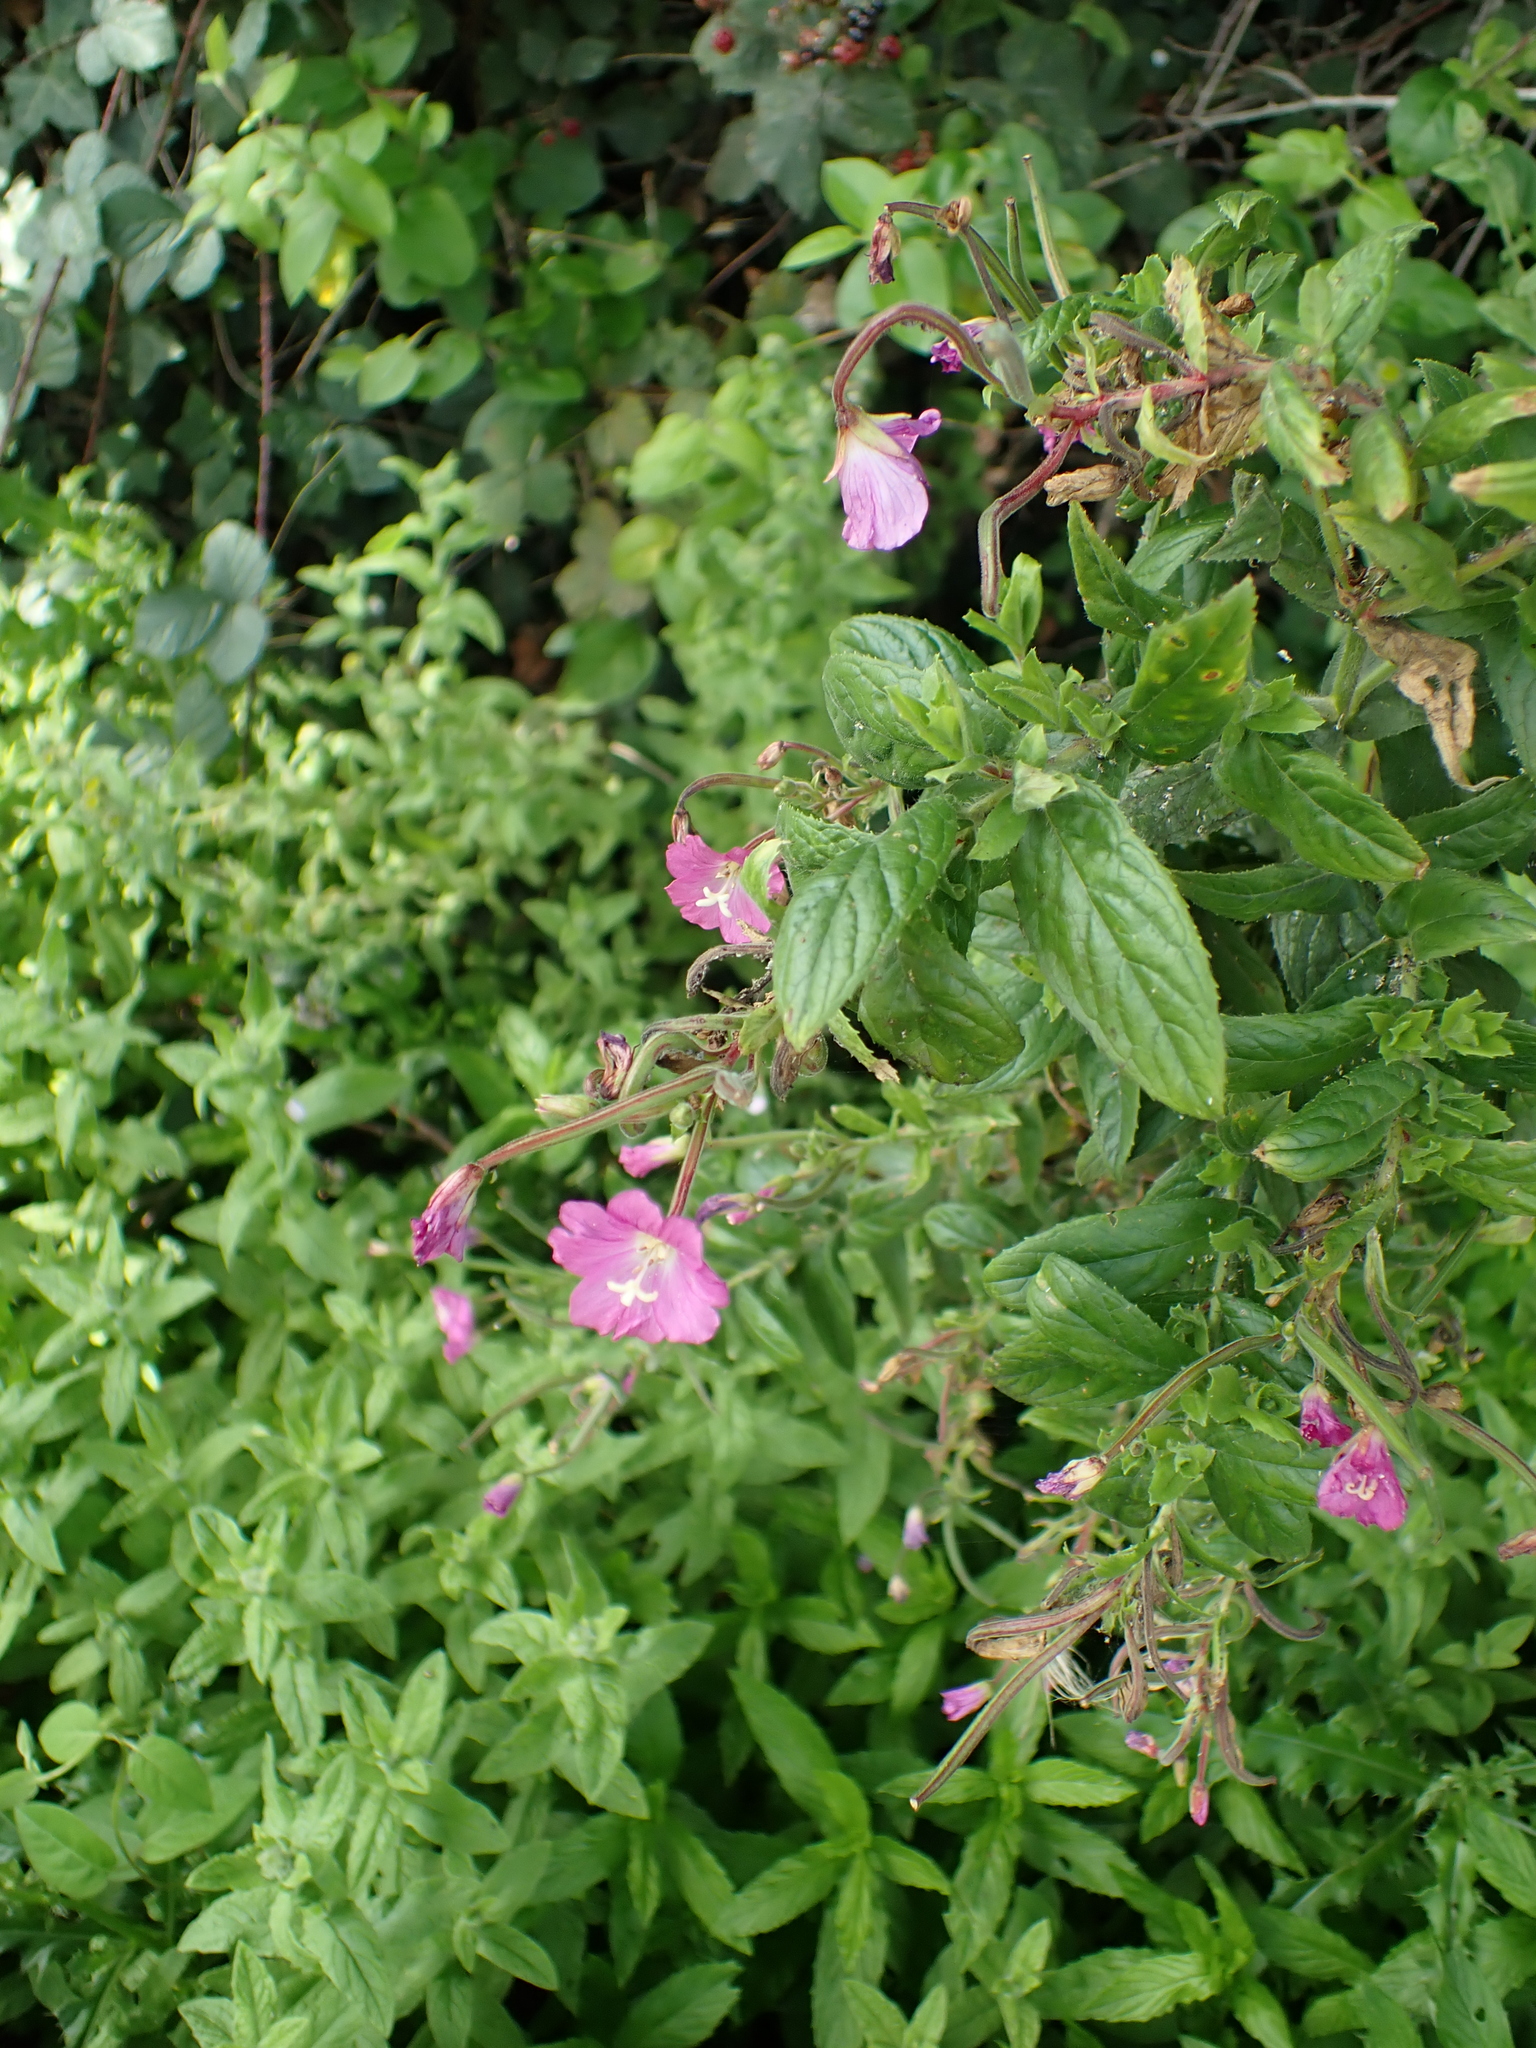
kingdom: Plantae
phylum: Tracheophyta
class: Magnoliopsida
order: Myrtales
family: Onagraceae
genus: Epilobium
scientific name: Epilobium hirsutum
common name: Great willowherb
